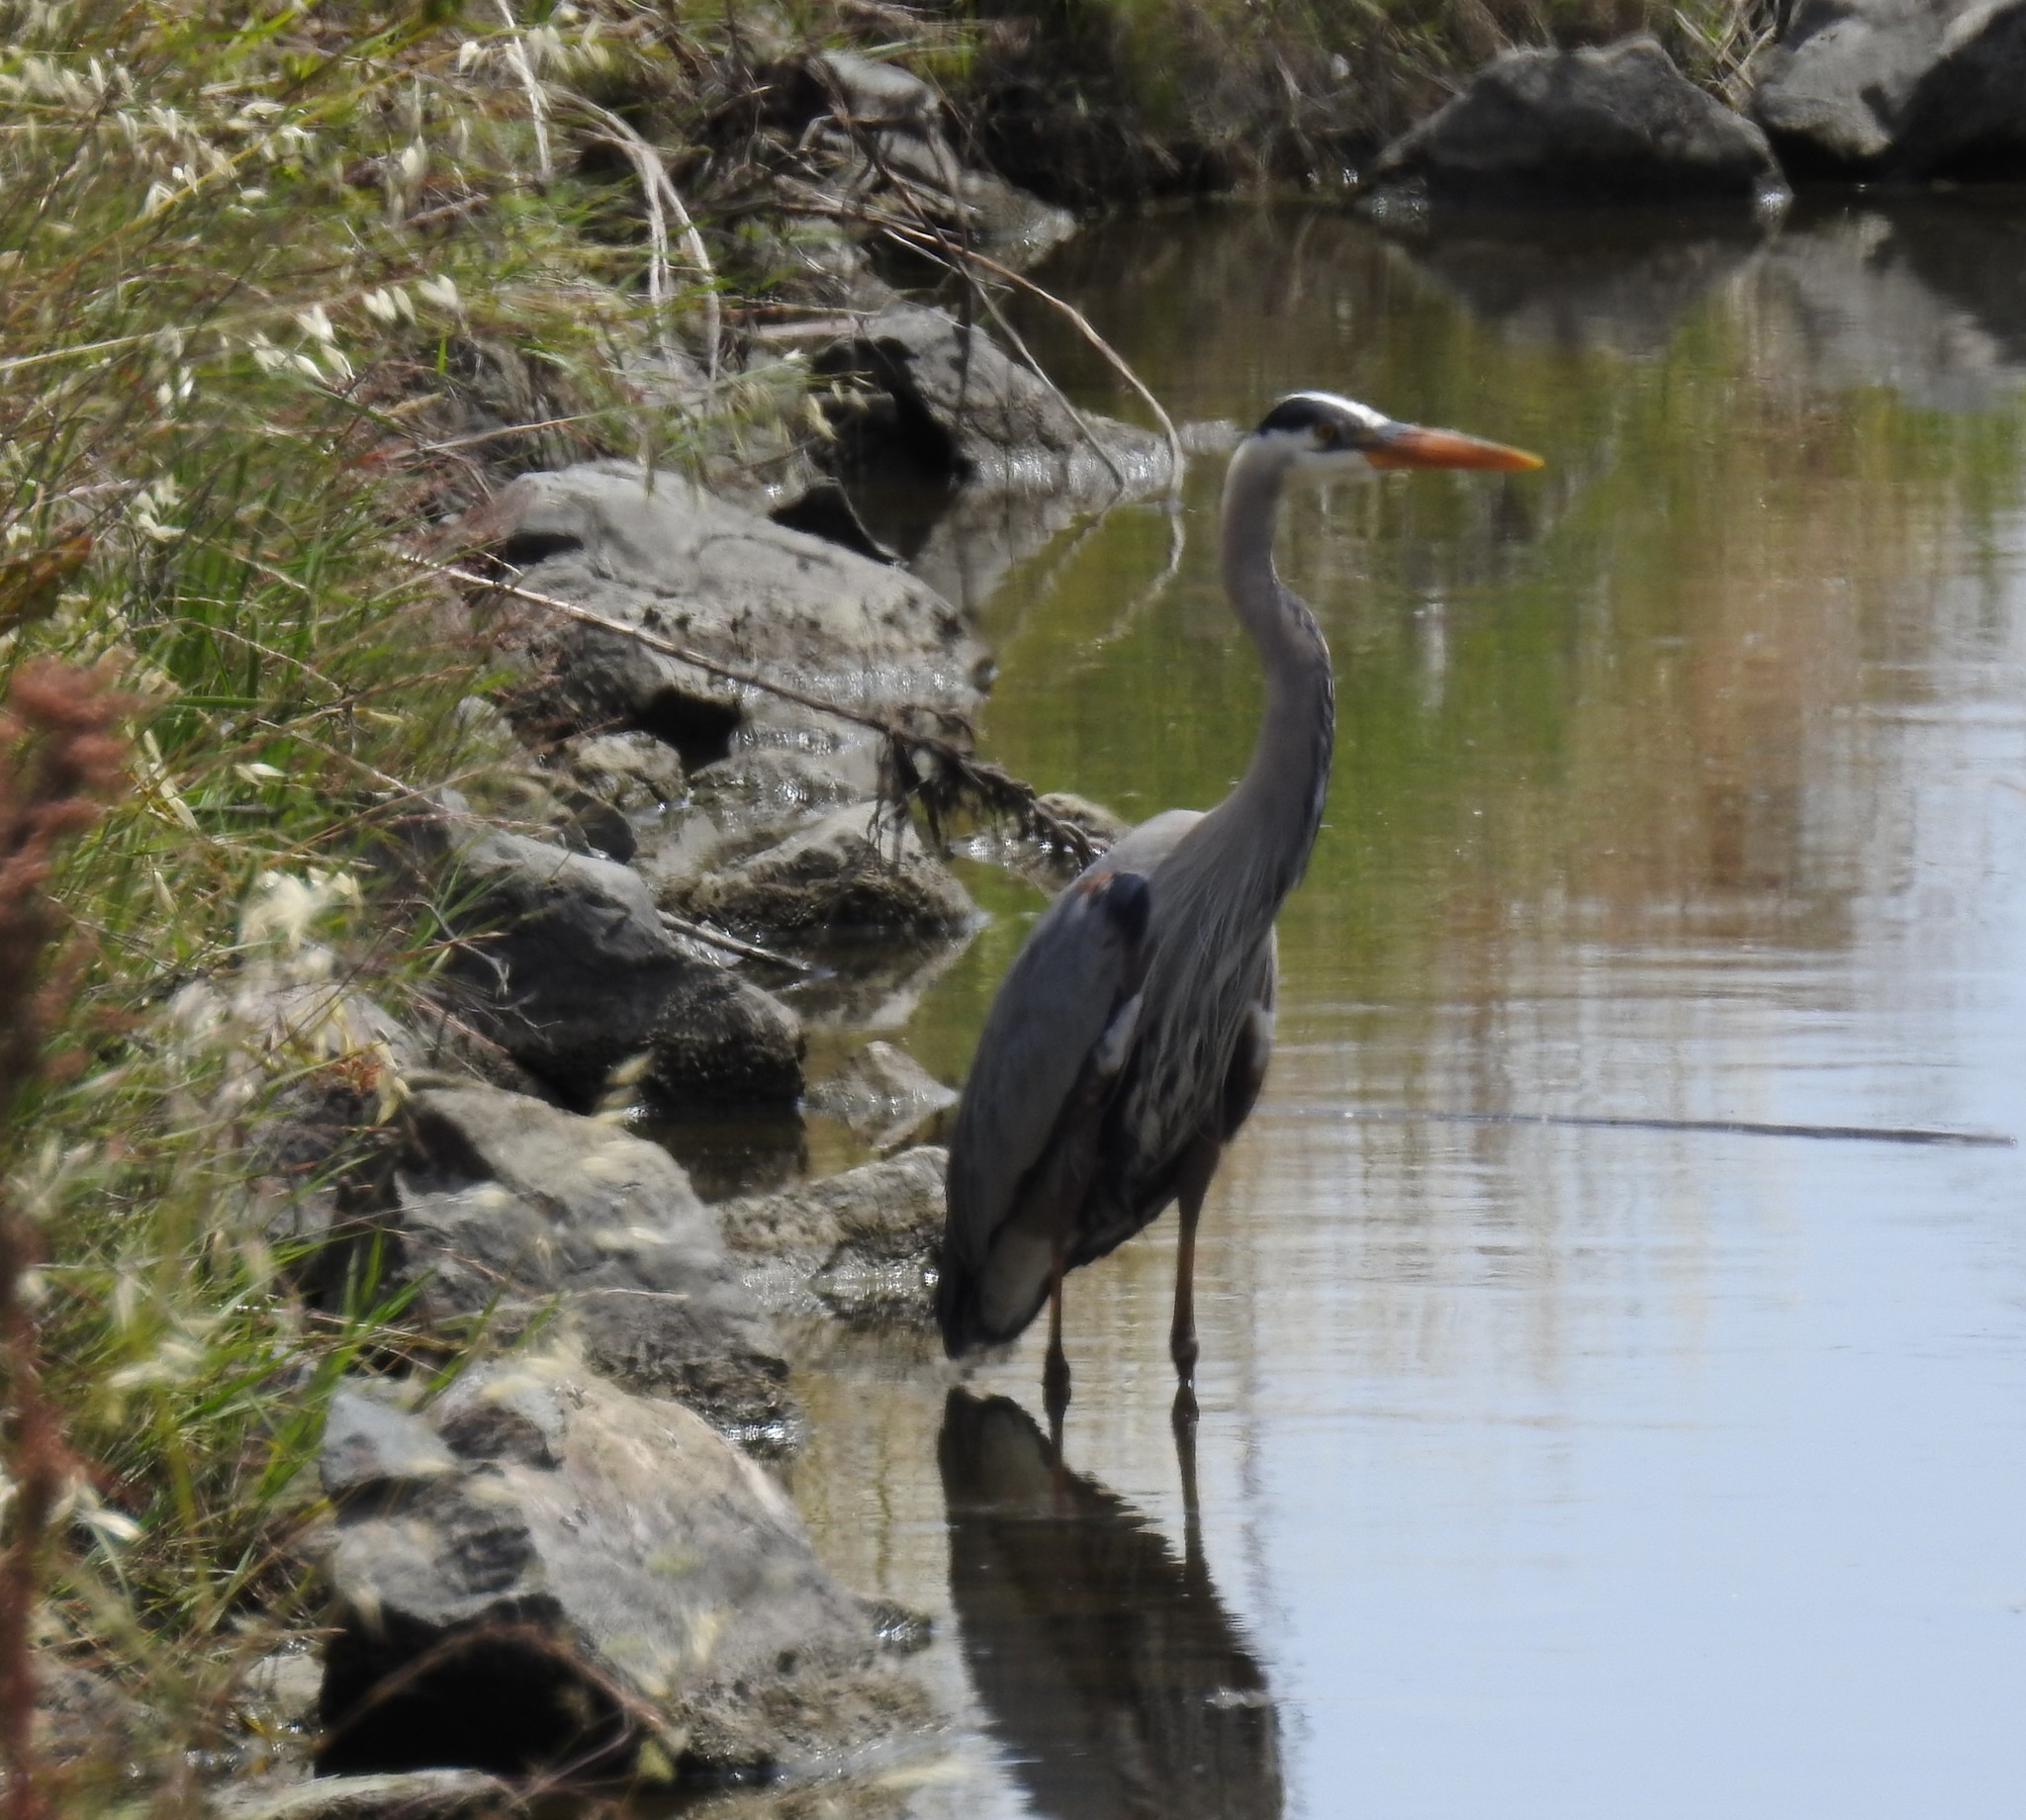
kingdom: Animalia
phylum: Chordata
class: Aves
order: Pelecaniformes
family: Ardeidae
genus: Ardea
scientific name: Ardea herodias
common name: Great blue heron
